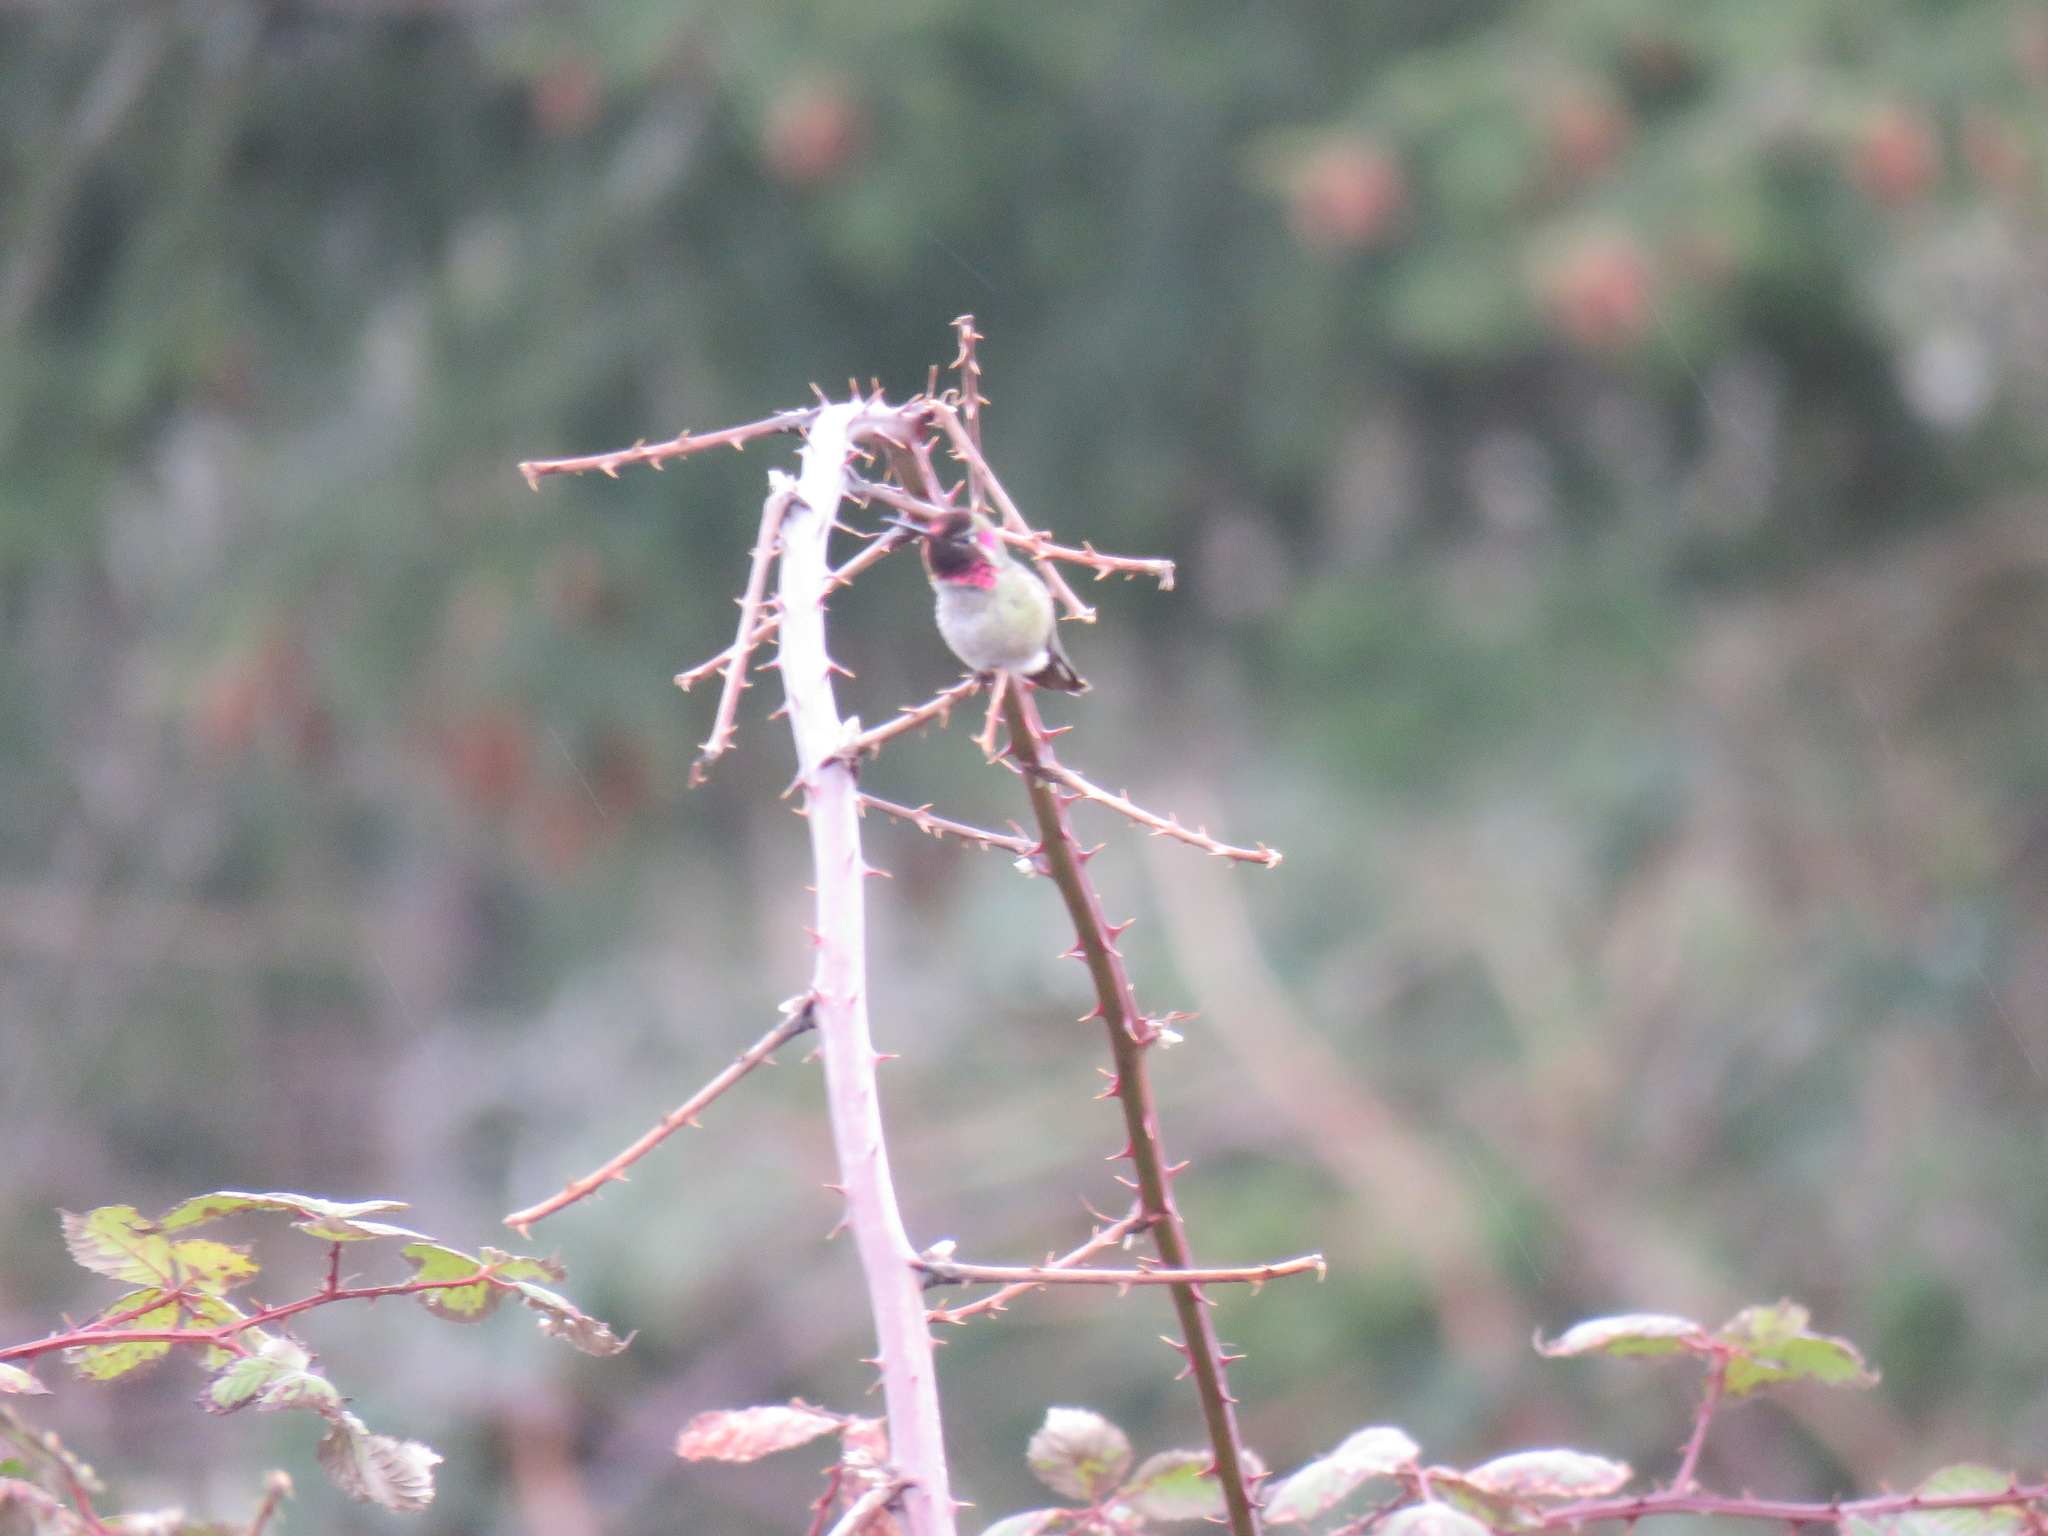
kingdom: Animalia
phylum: Chordata
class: Aves
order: Apodiformes
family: Trochilidae
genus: Calypte
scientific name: Calypte anna
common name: Anna's hummingbird
